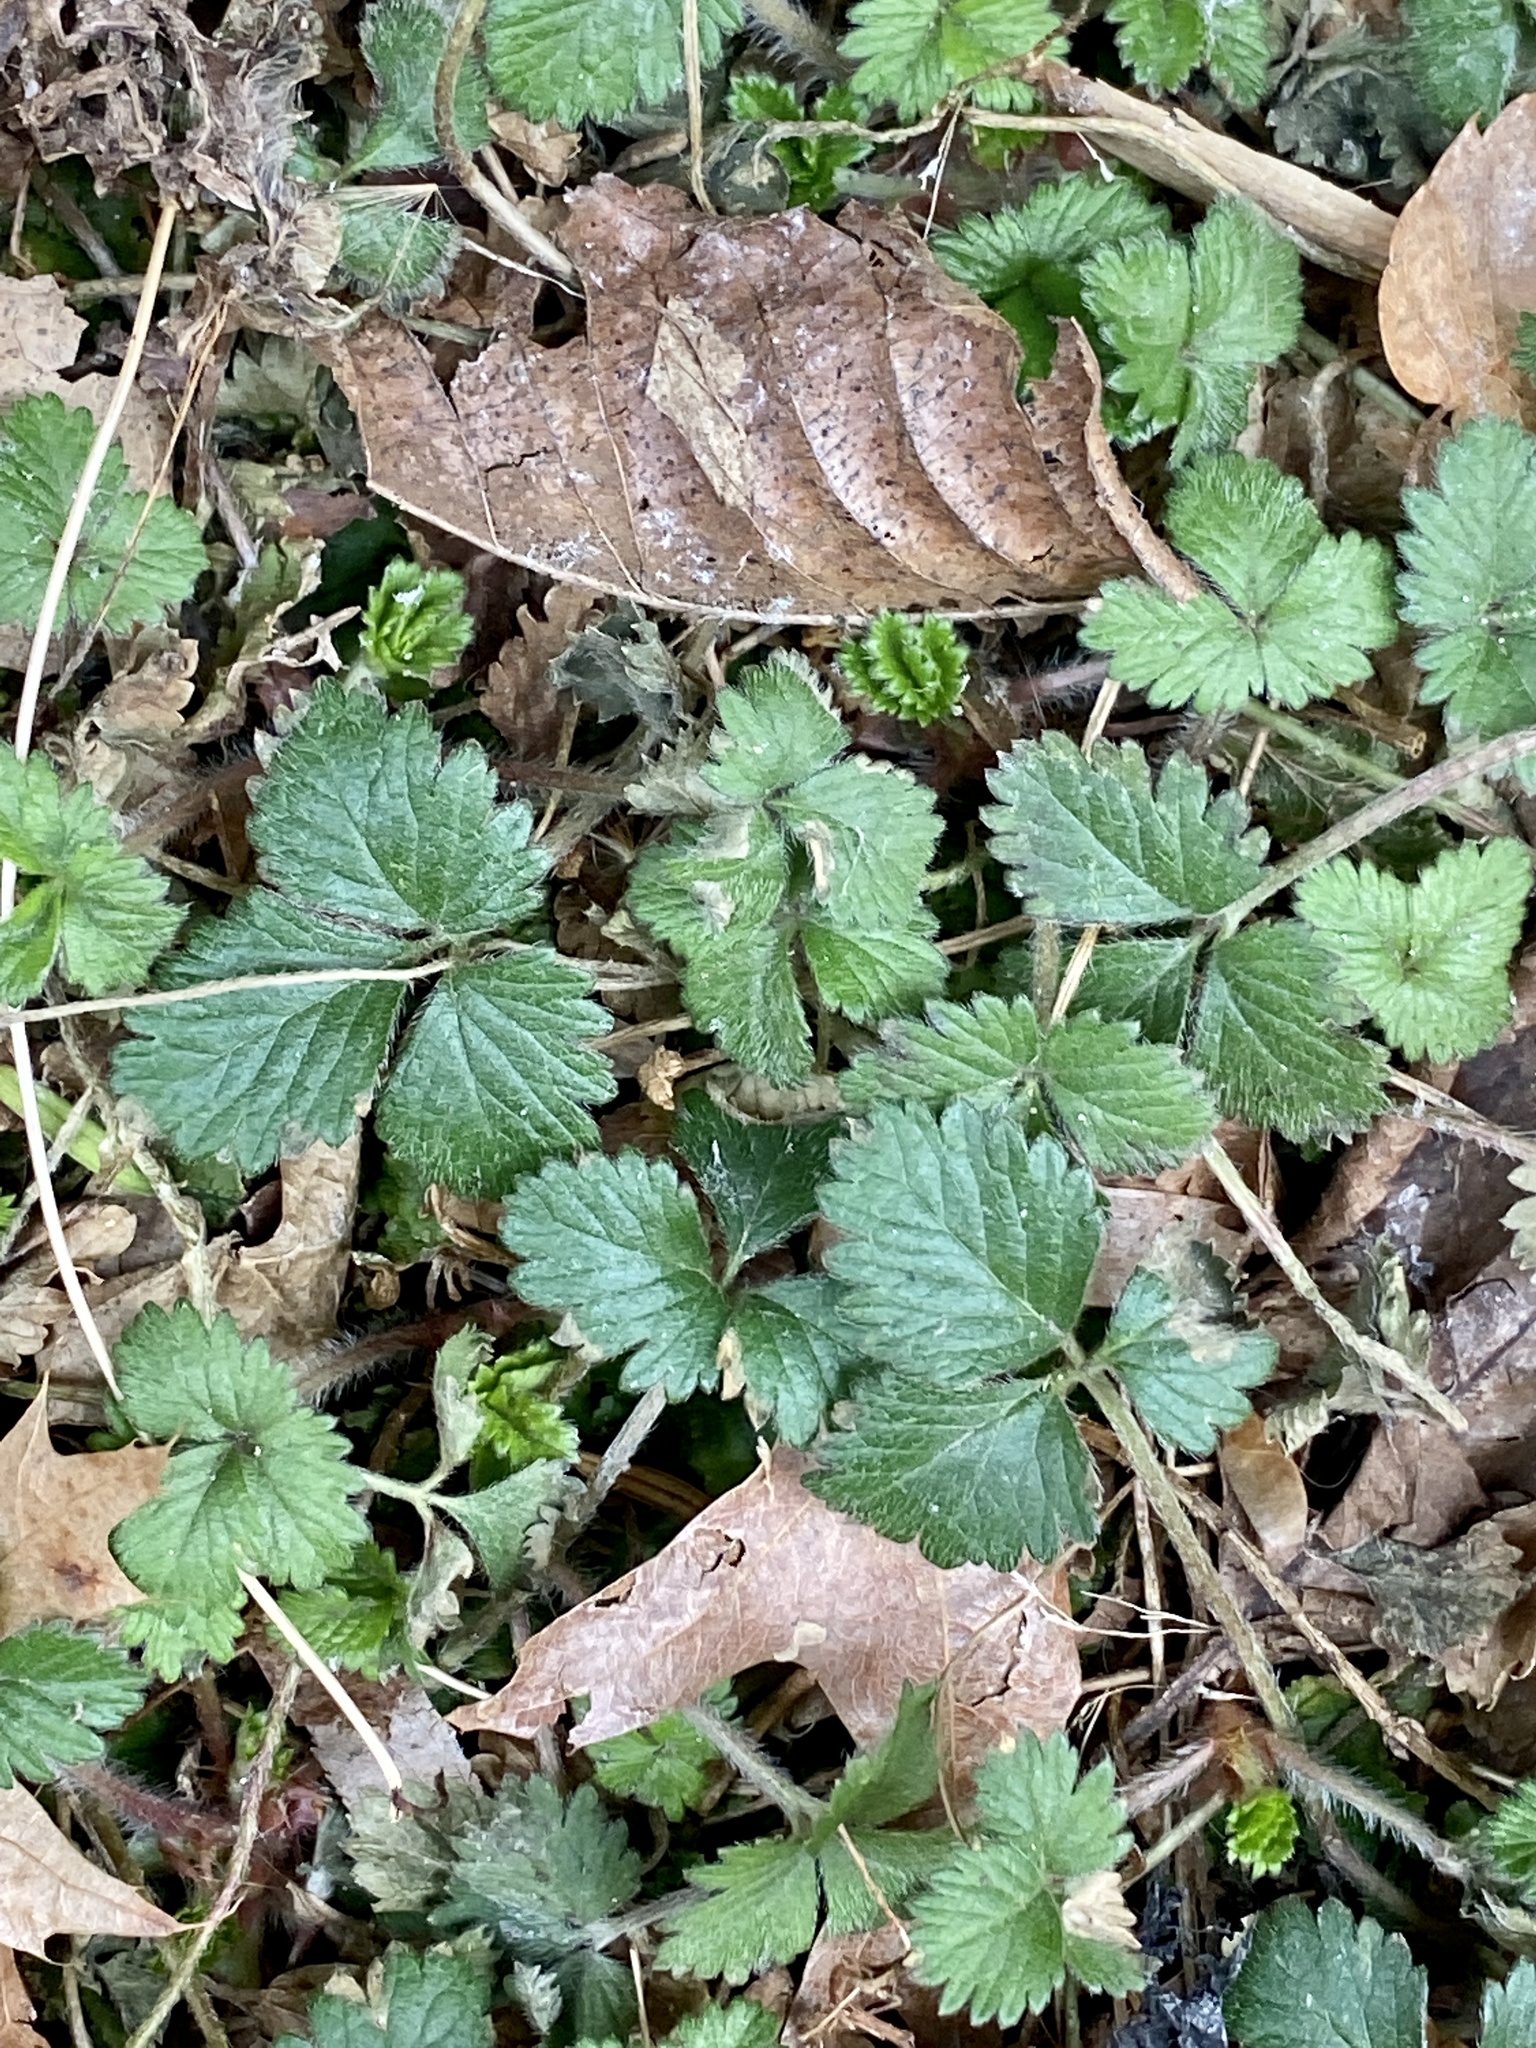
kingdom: Plantae
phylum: Tracheophyta
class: Magnoliopsida
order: Rosales
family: Rosaceae
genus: Potentilla
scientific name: Potentilla indica
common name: Yellow-flowered strawberry
